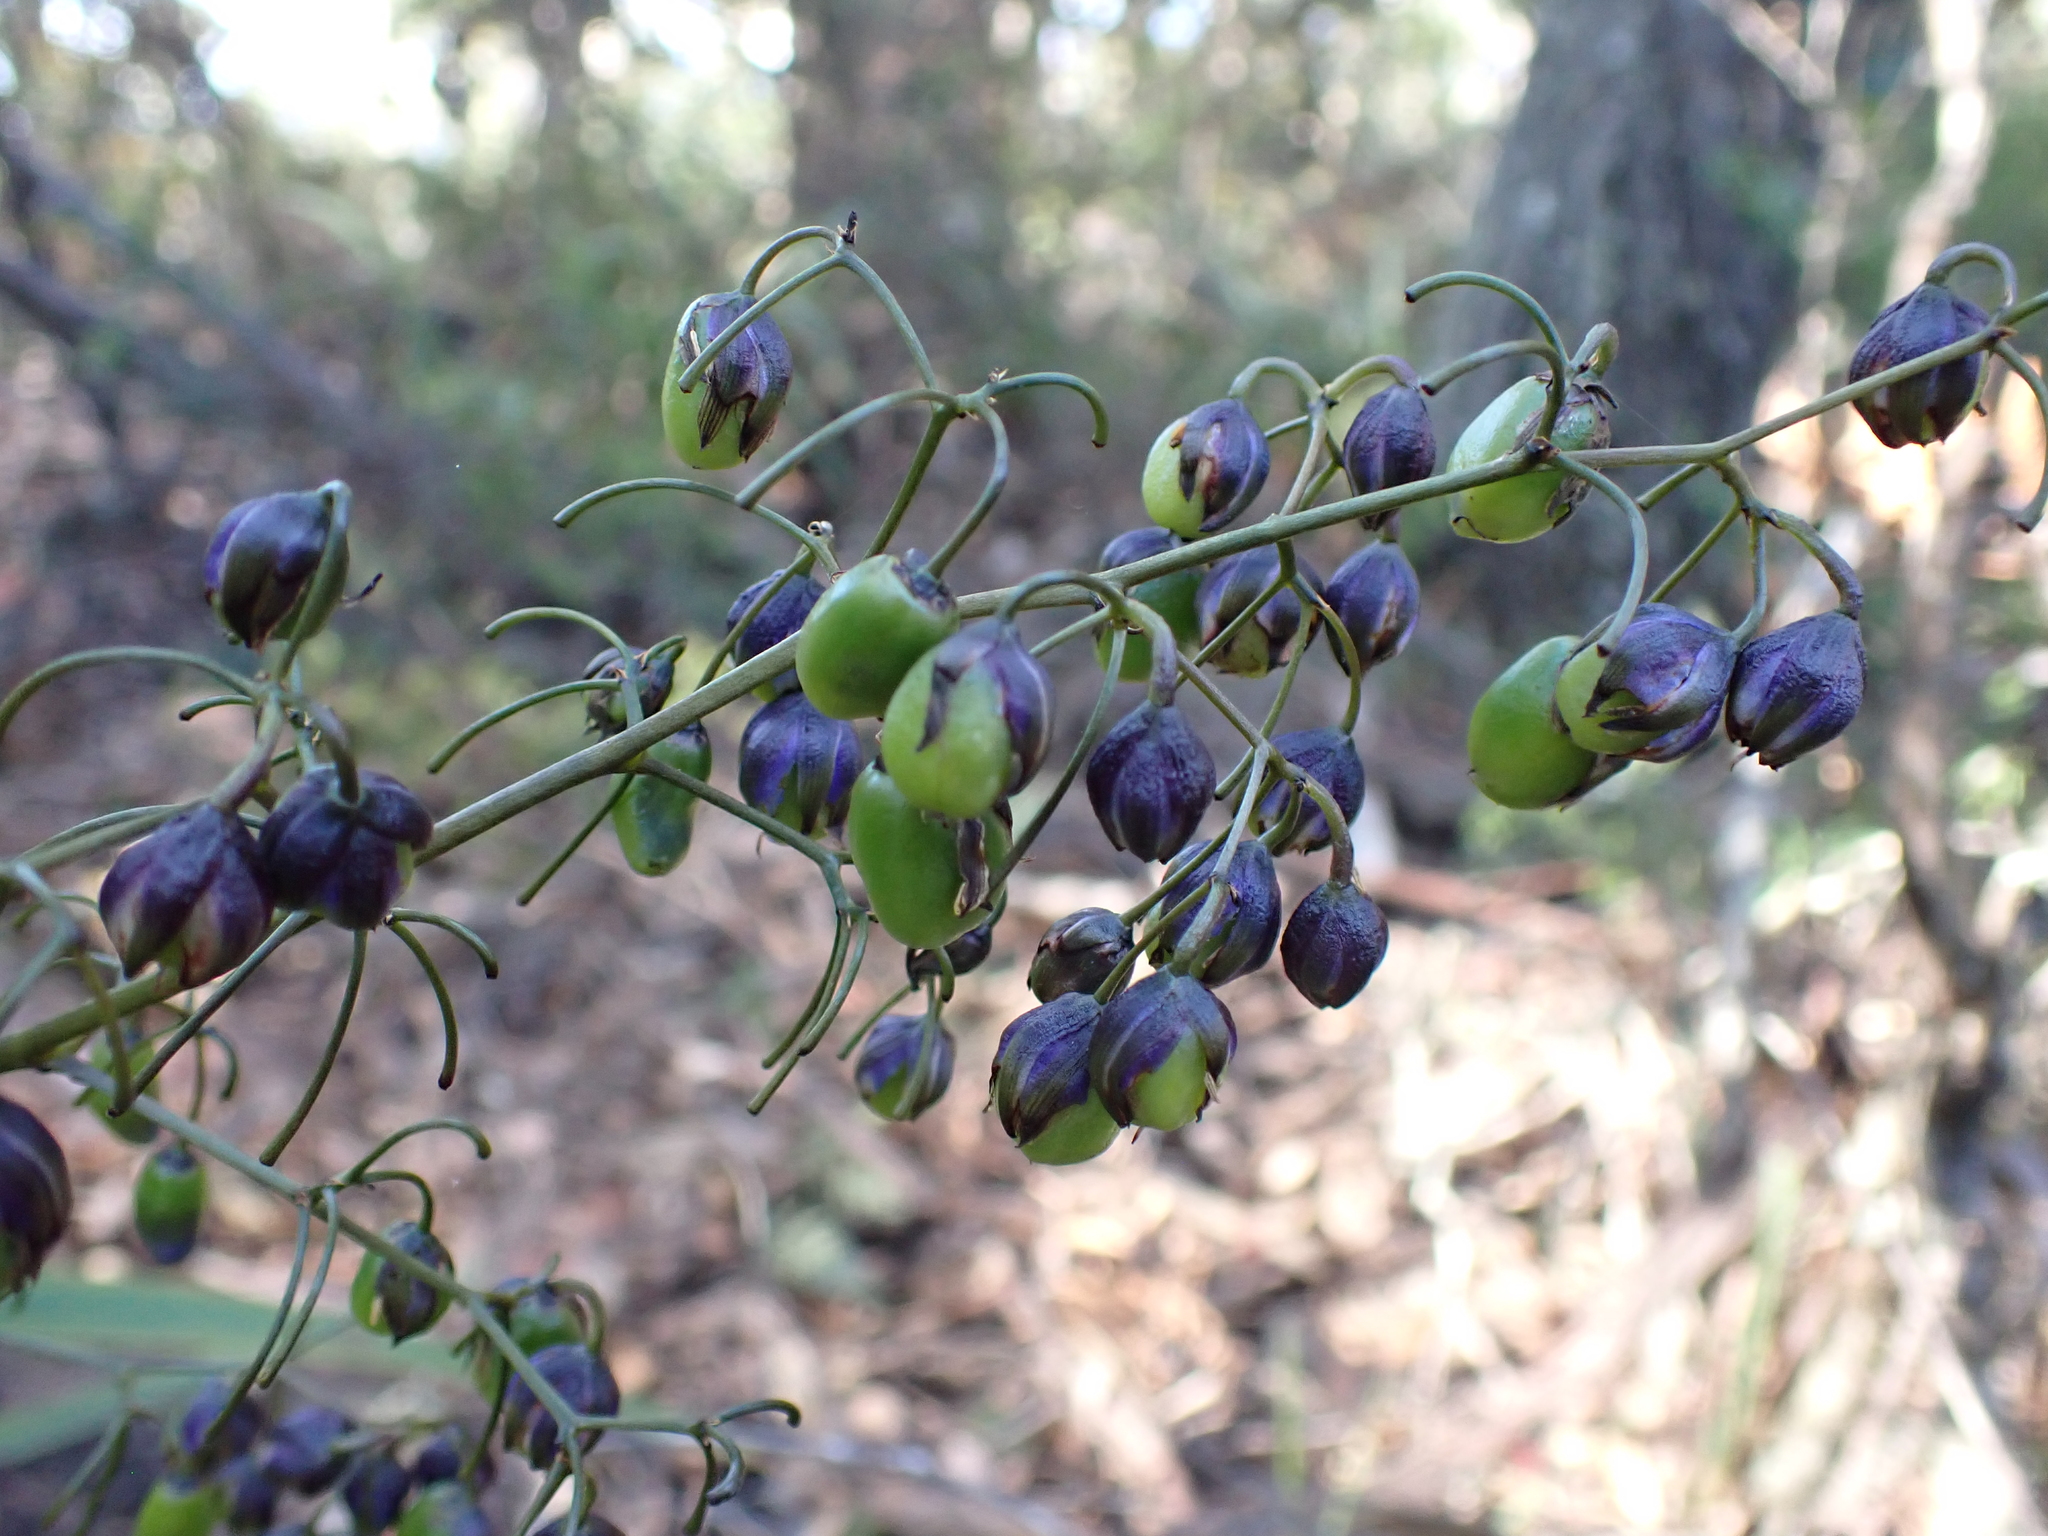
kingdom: Plantae
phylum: Tracheophyta
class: Liliopsida
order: Asparagales
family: Asphodelaceae
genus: Dianella
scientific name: Dianella tasmanica
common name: Tasman flax-lily
